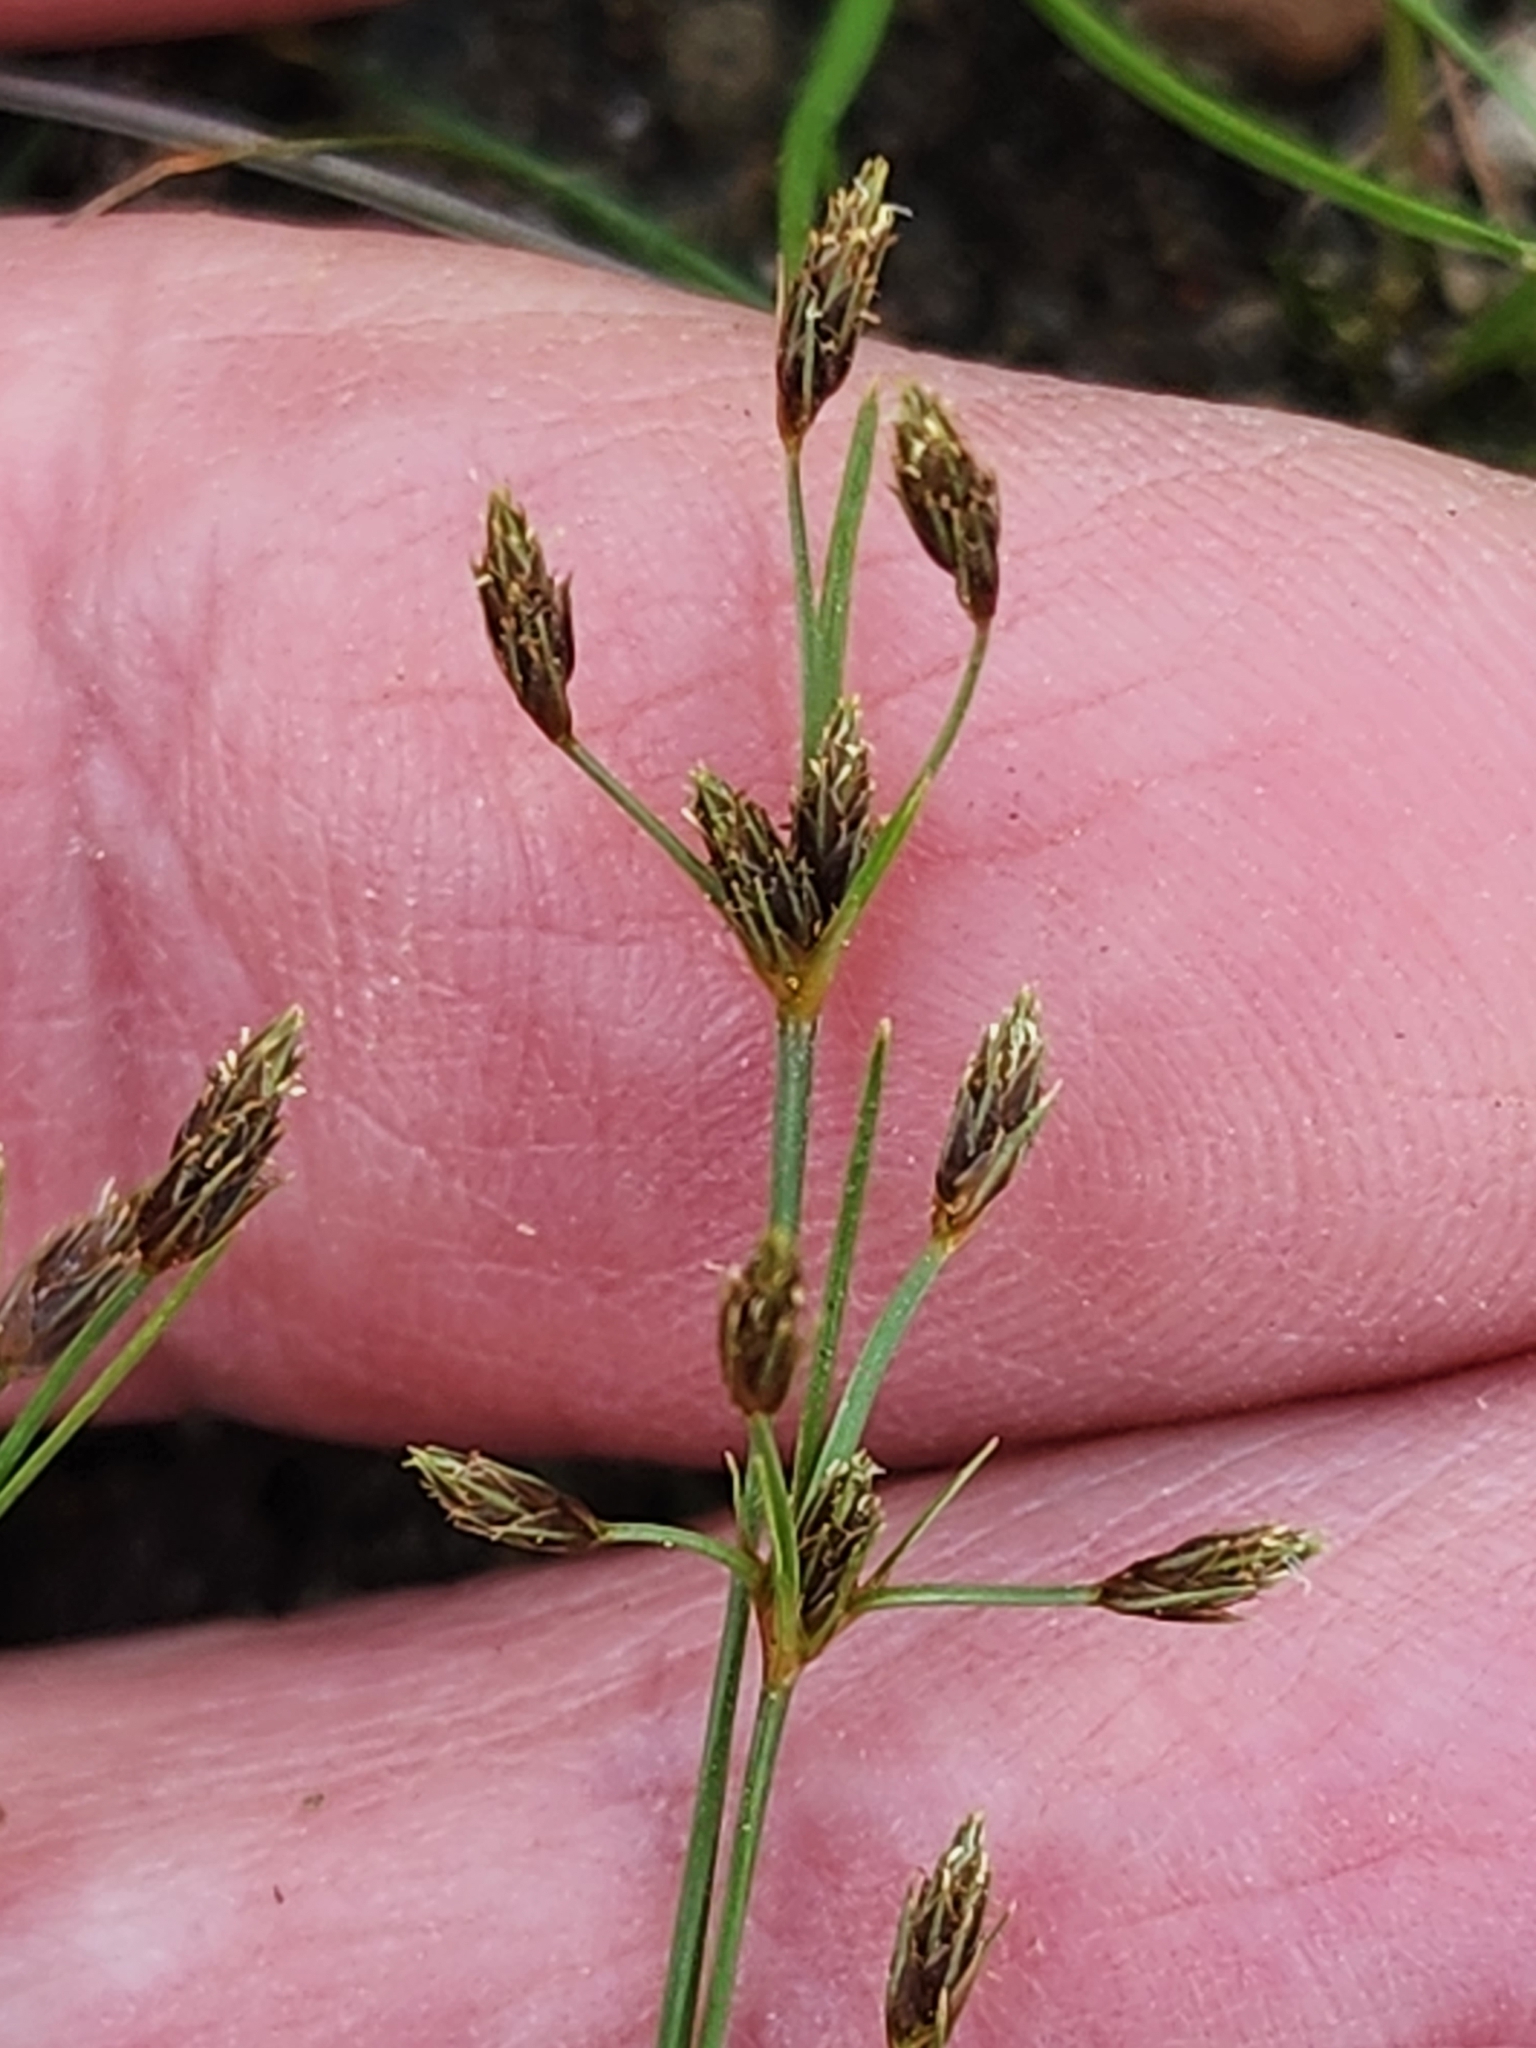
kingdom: Plantae
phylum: Tracheophyta
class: Liliopsida
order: Poales
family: Cyperaceae
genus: Fimbristylis
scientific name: Fimbristylis autumnalis
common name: Slender fimbristylis
